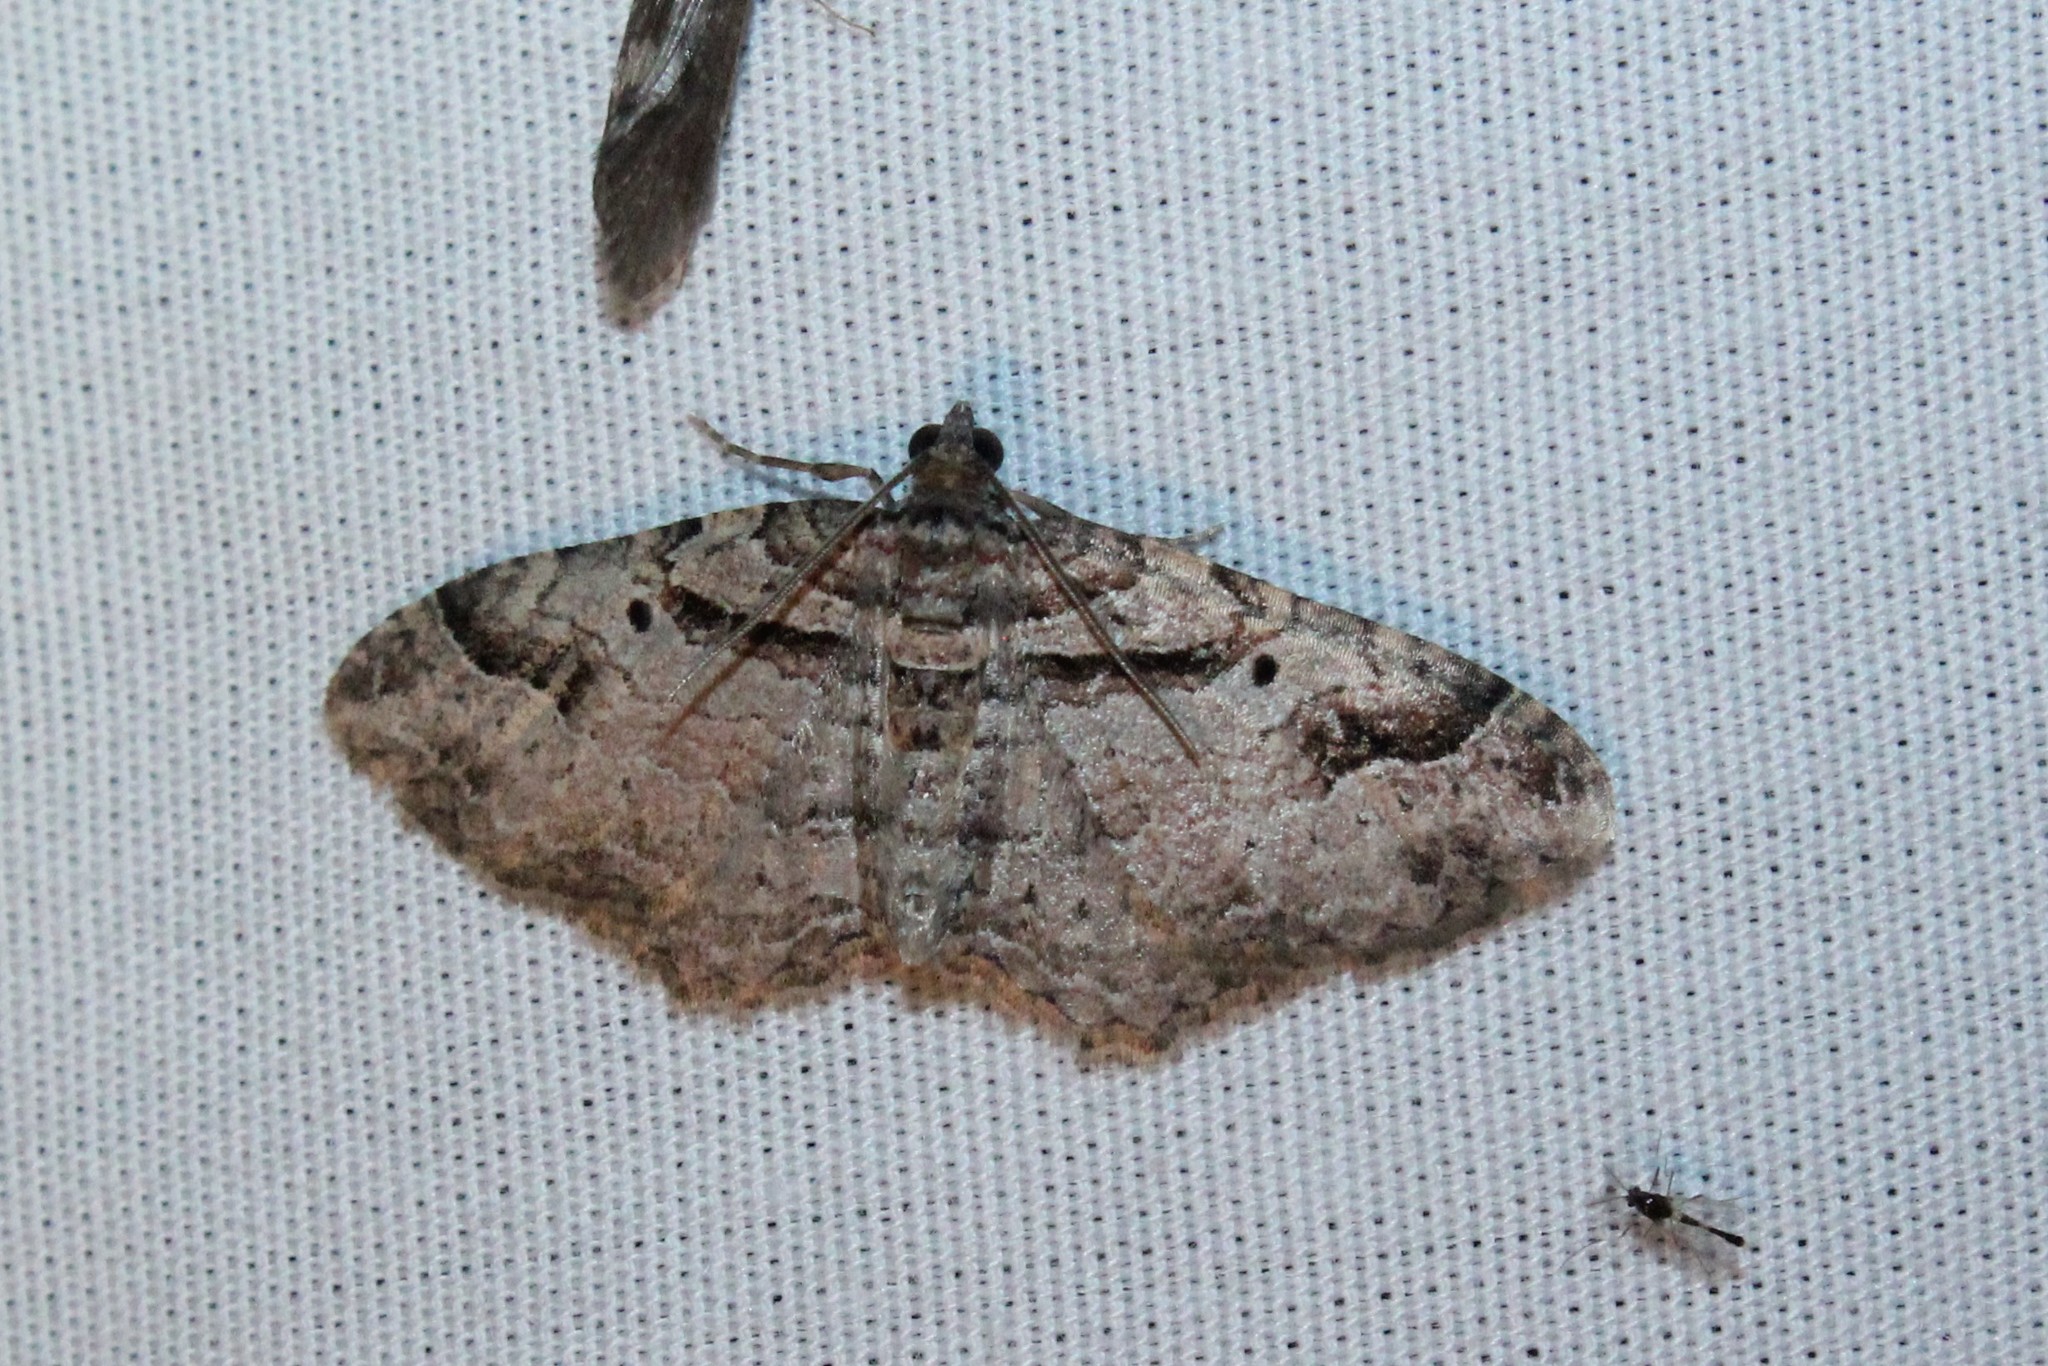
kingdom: Animalia
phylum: Arthropoda
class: Insecta
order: Lepidoptera
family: Geometridae
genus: Costaconvexa
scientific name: Costaconvexa centrostrigaria
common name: Bent-line carpet
